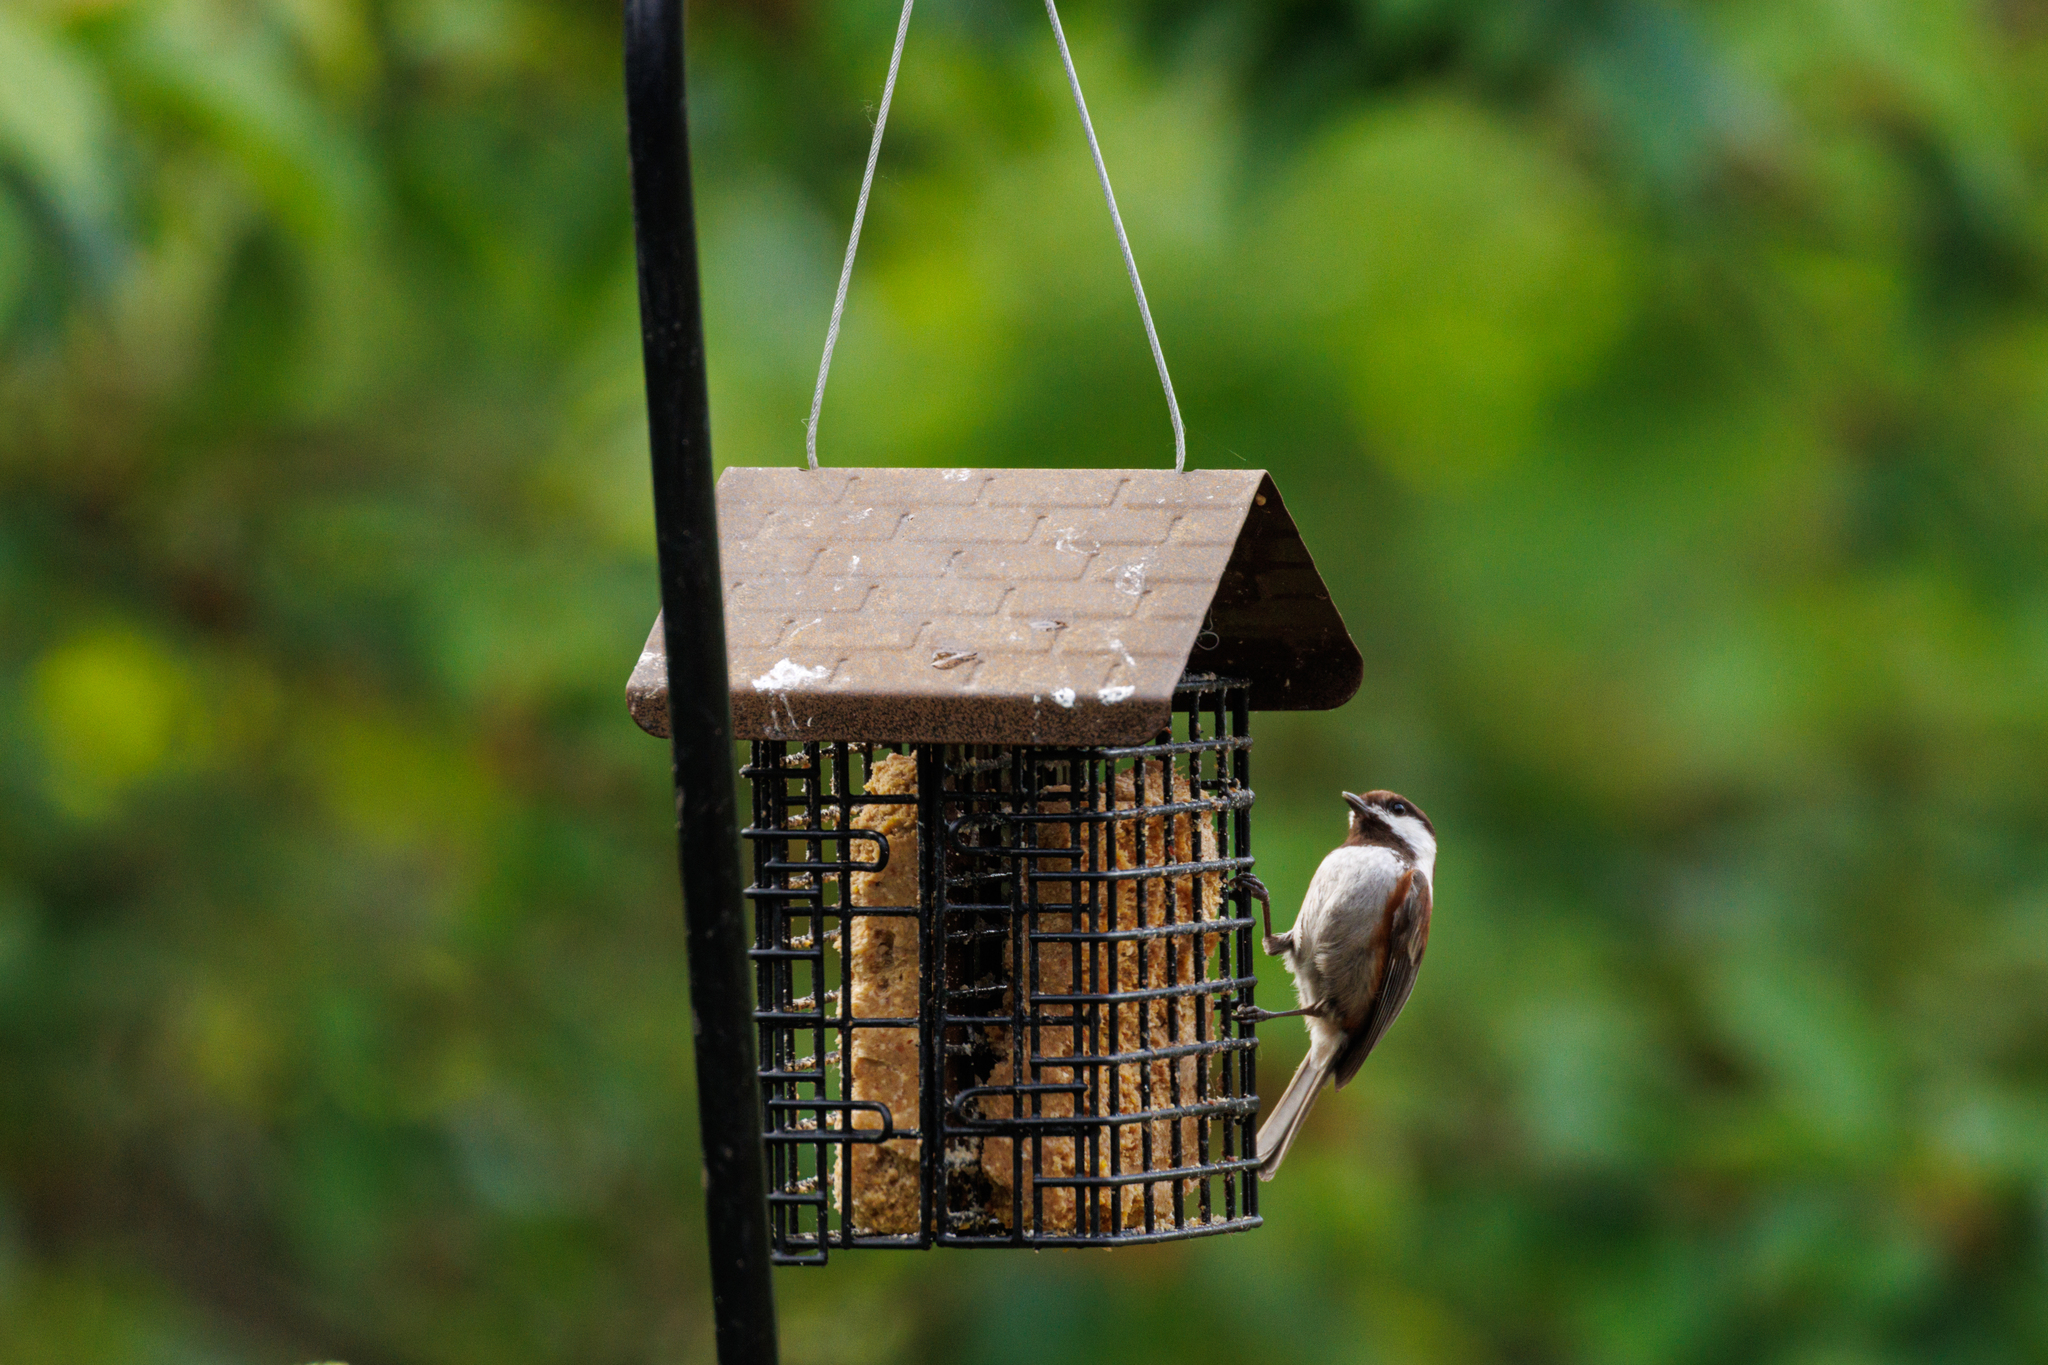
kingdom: Animalia
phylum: Chordata
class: Aves
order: Passeriformes
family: Paridae
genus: Poecile
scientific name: Poecile rufescens
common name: Chestnut-backed chickadee
